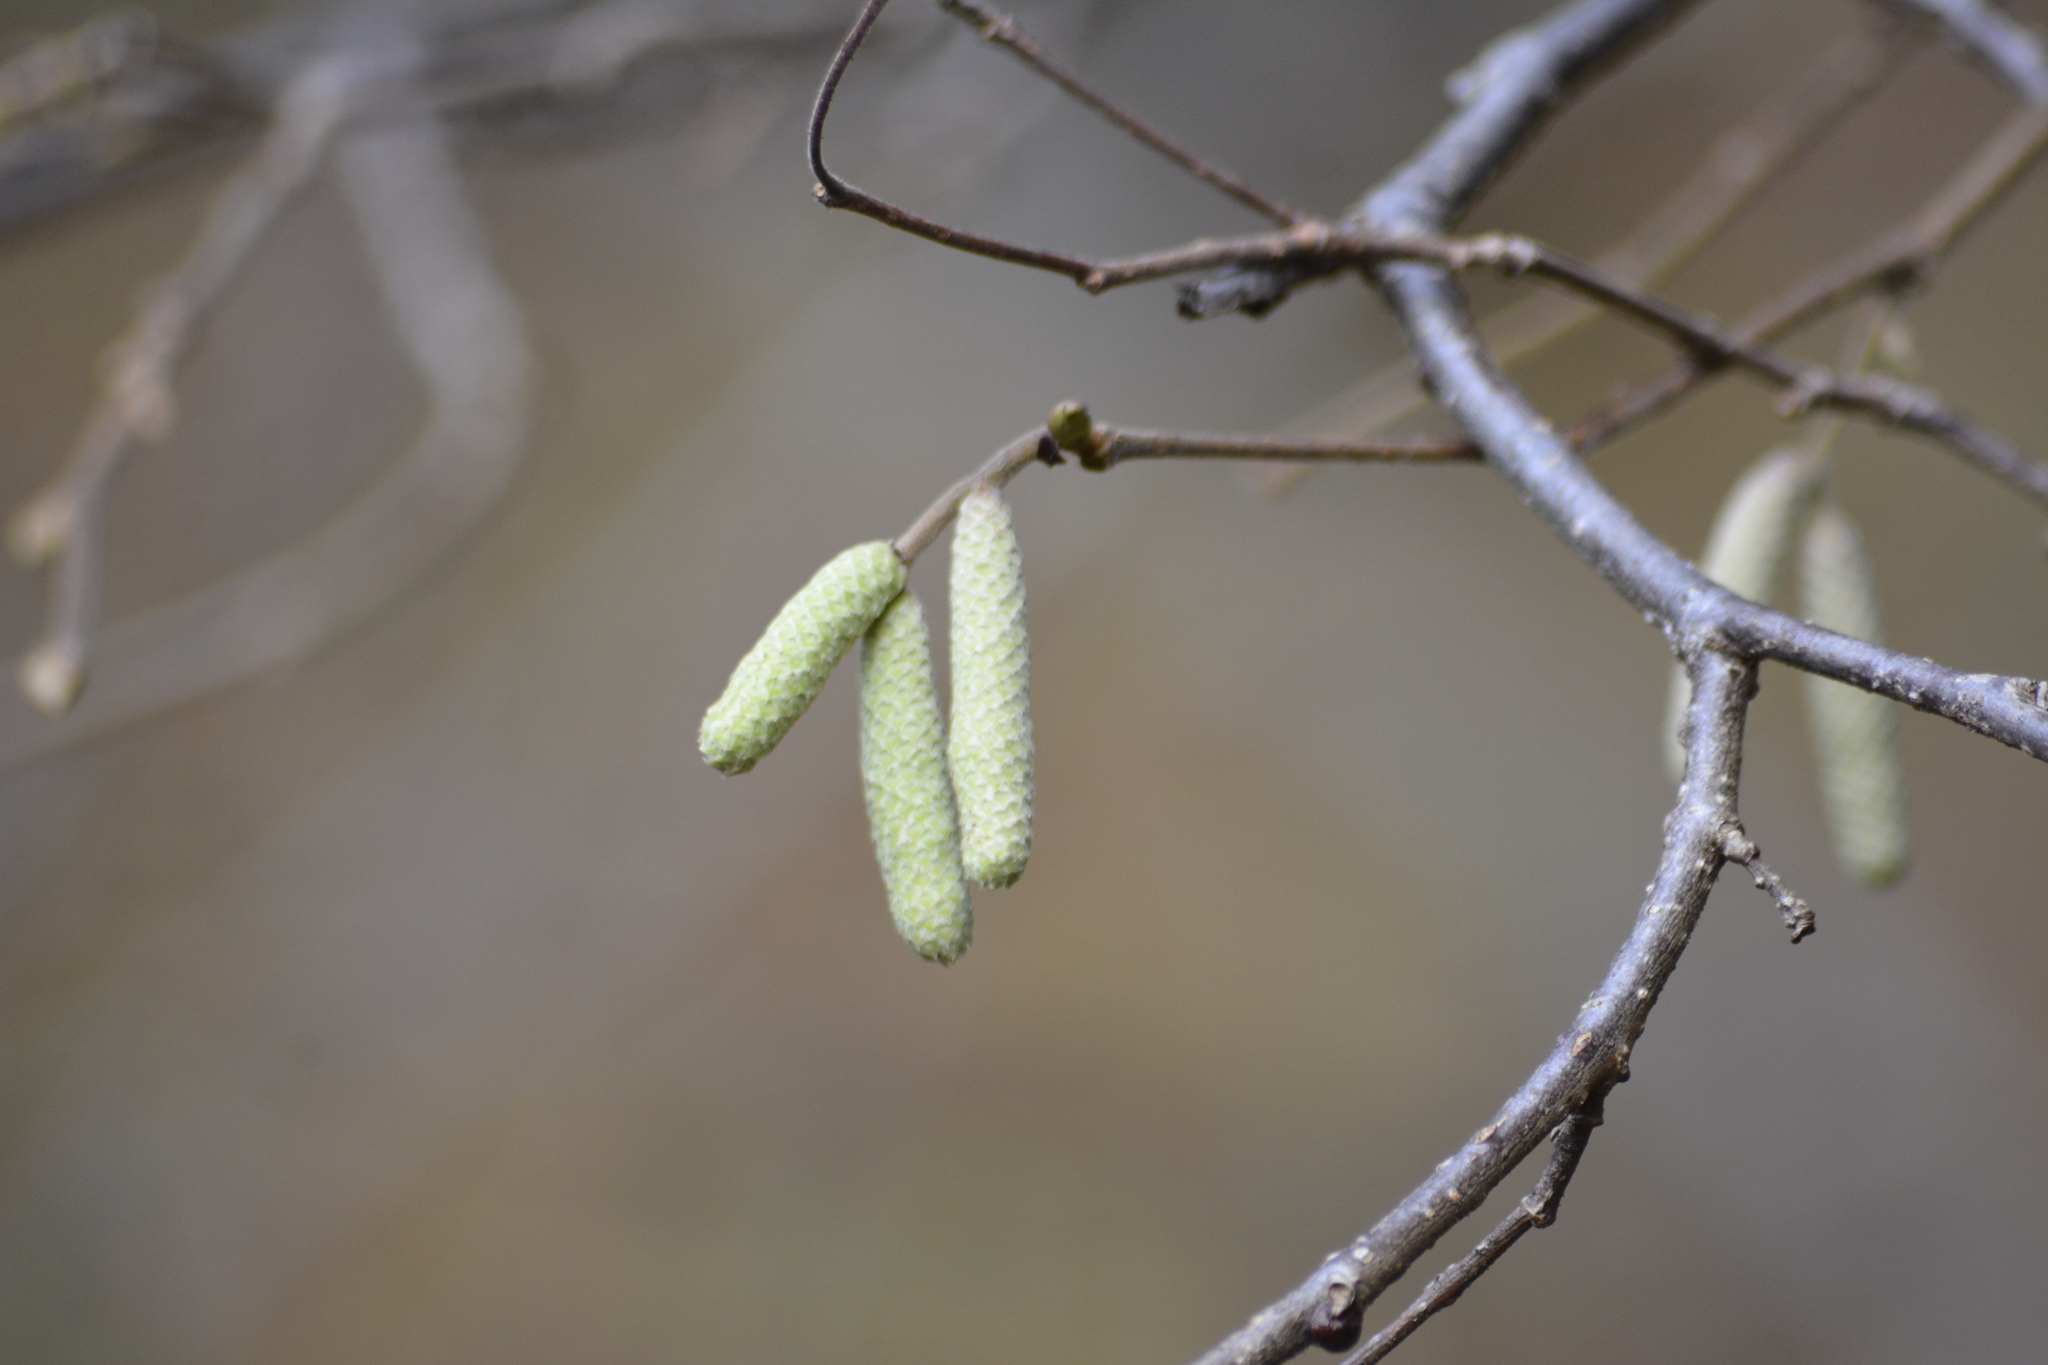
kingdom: Plantae
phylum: Tracheophyta
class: Magnoliopsida
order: Fagales
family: Betulaceae
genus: Corylus
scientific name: Corylus avellana
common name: European hazel
